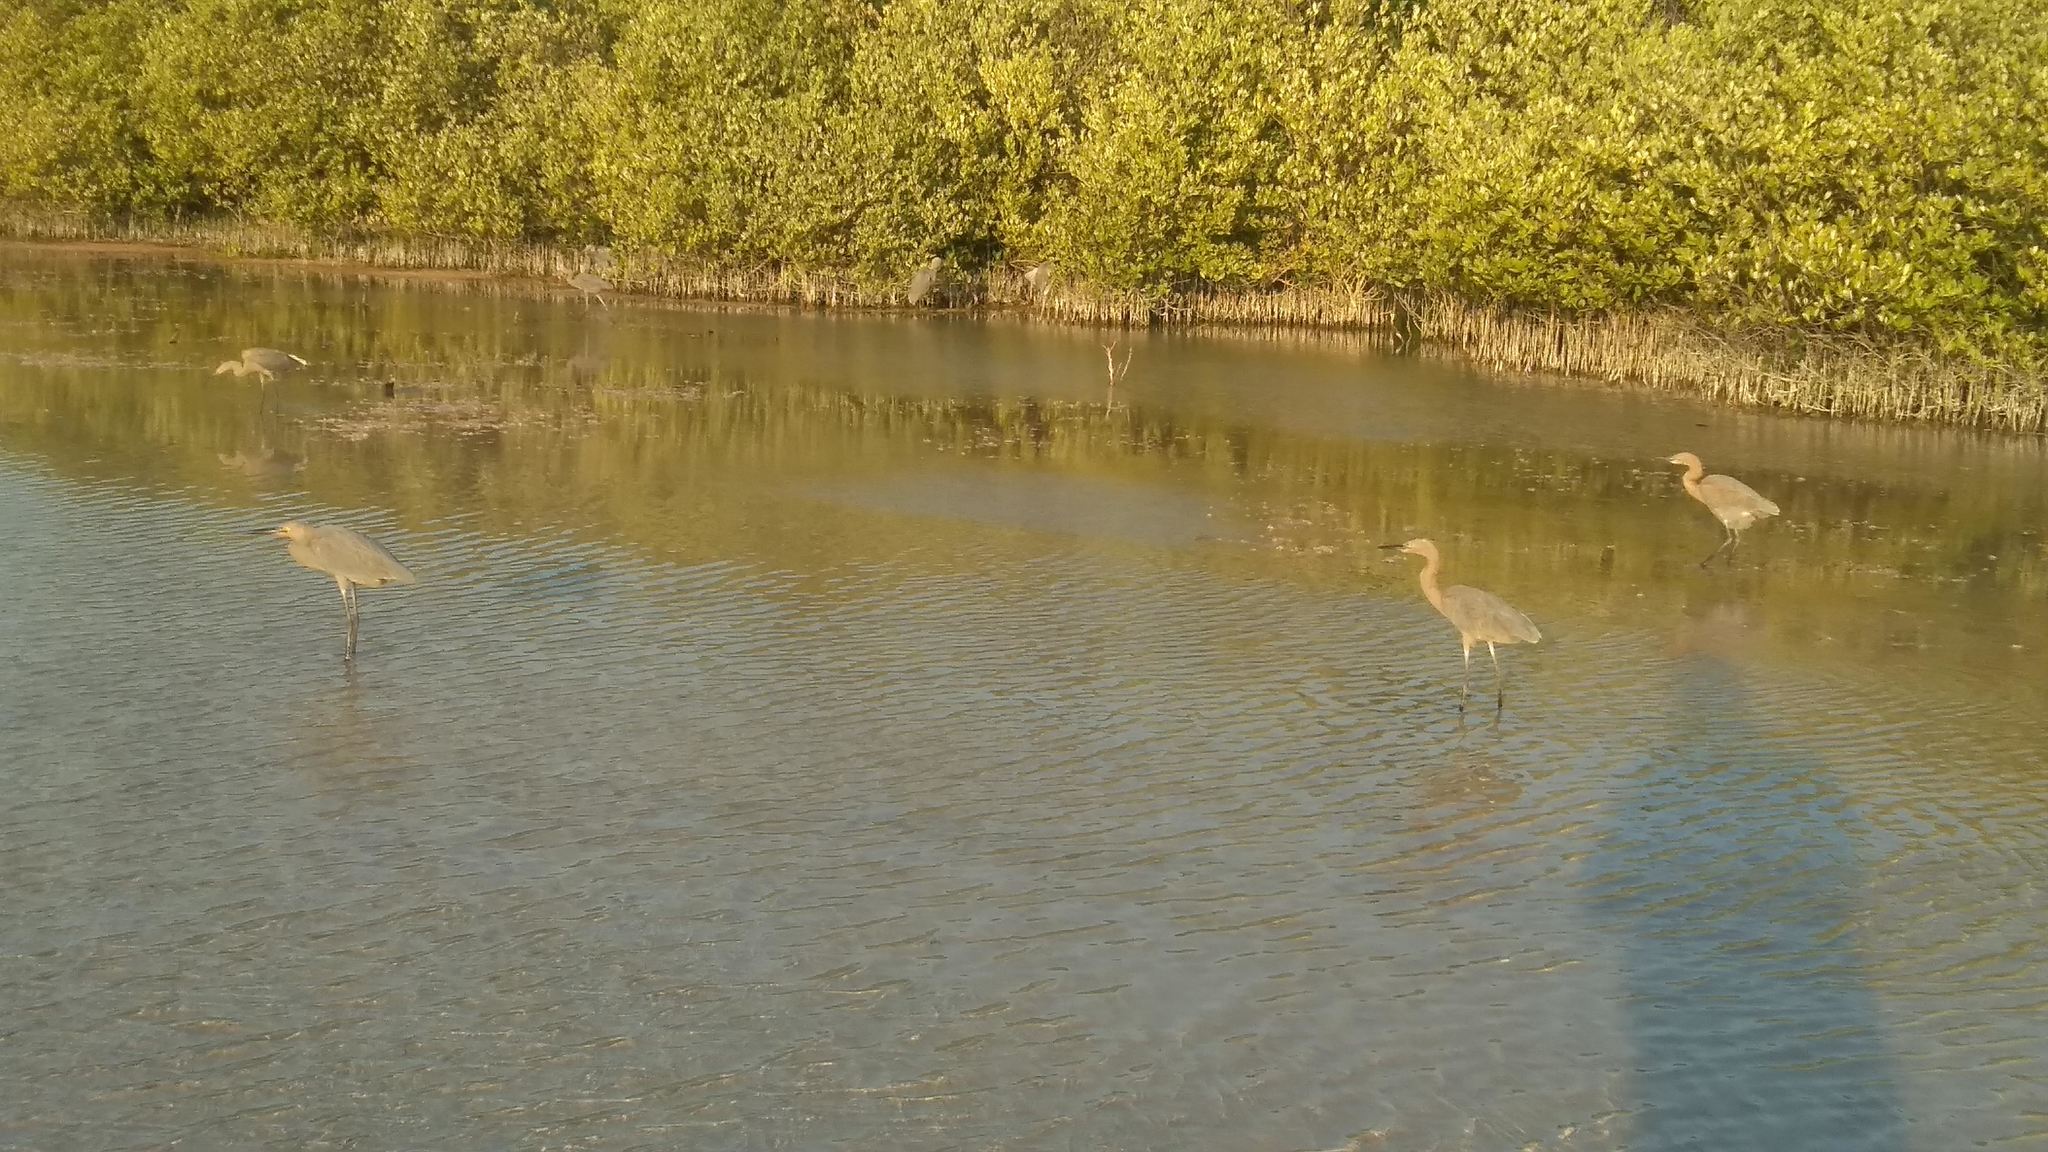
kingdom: Animalia
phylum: Chordata
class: Aves
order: Pelecaniformes
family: Ardeidae
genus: Egretta
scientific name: Egretta rufescens
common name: Reddish egret
